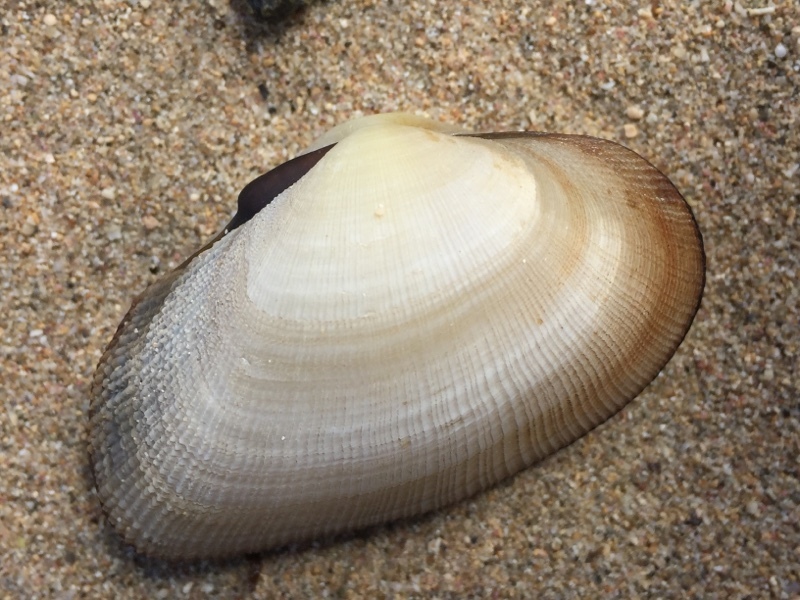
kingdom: Animalia
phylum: Mollusca
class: Bivalvia
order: Cardiida
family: Psammobiidae
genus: Asaphis
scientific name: Asaphis deflorata
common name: Gaudy asaphis
